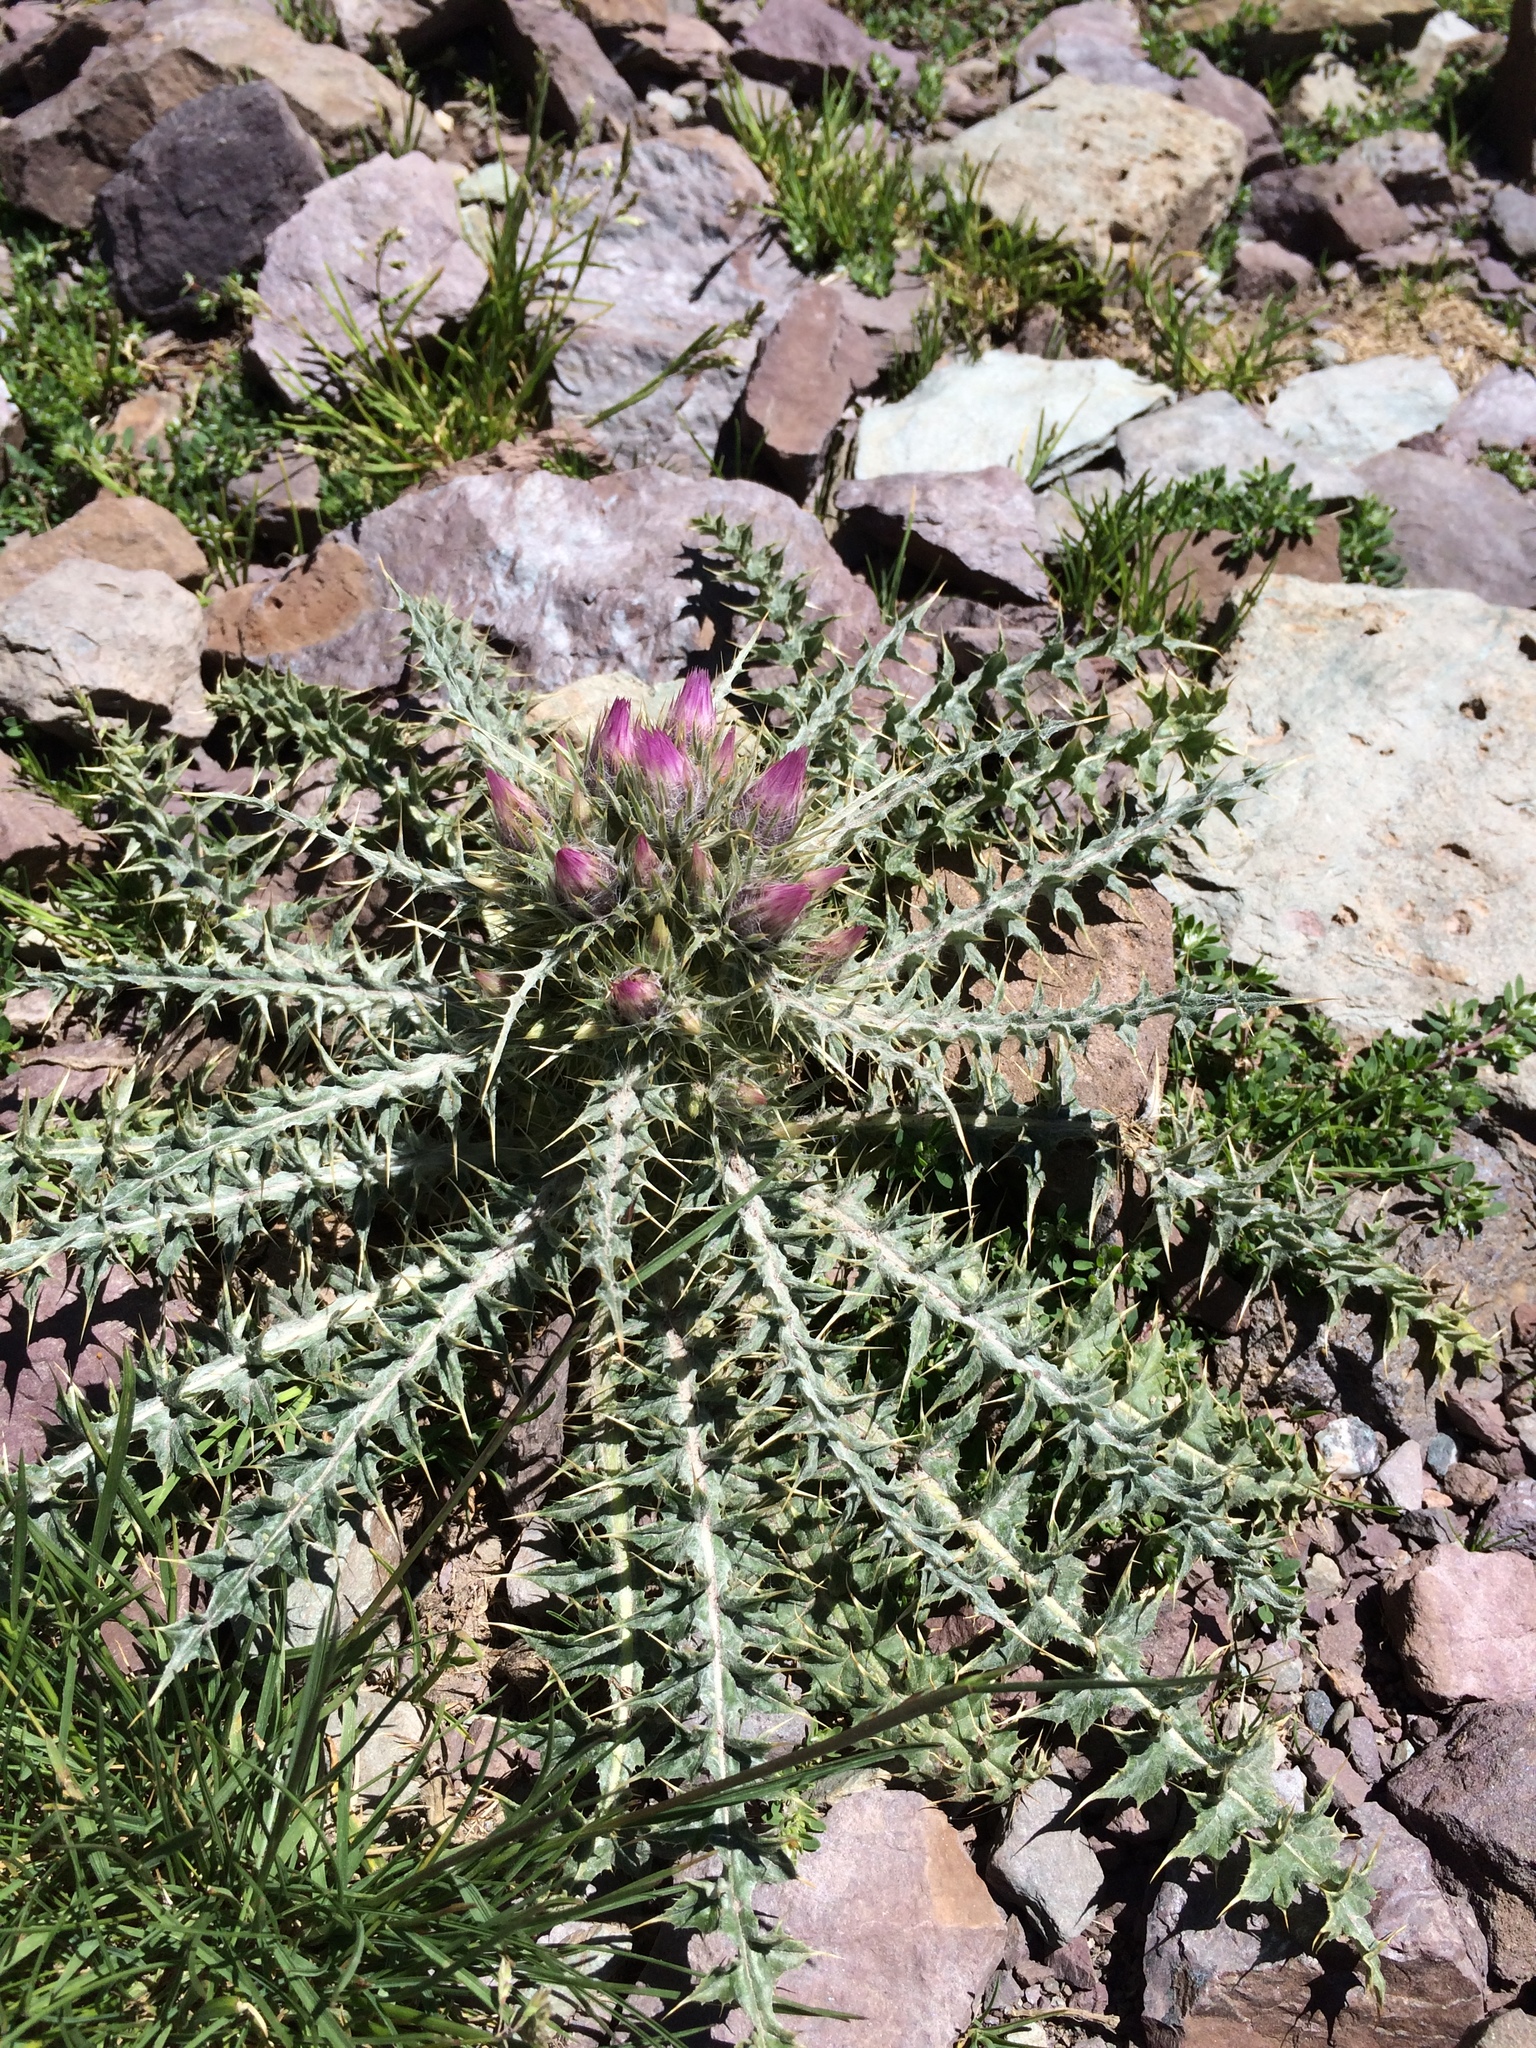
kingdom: Plantae
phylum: Tracheophyta
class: Magnoliopsida
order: Asterales
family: Asteraceae
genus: Carduus
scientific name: Carduus carlinoides
